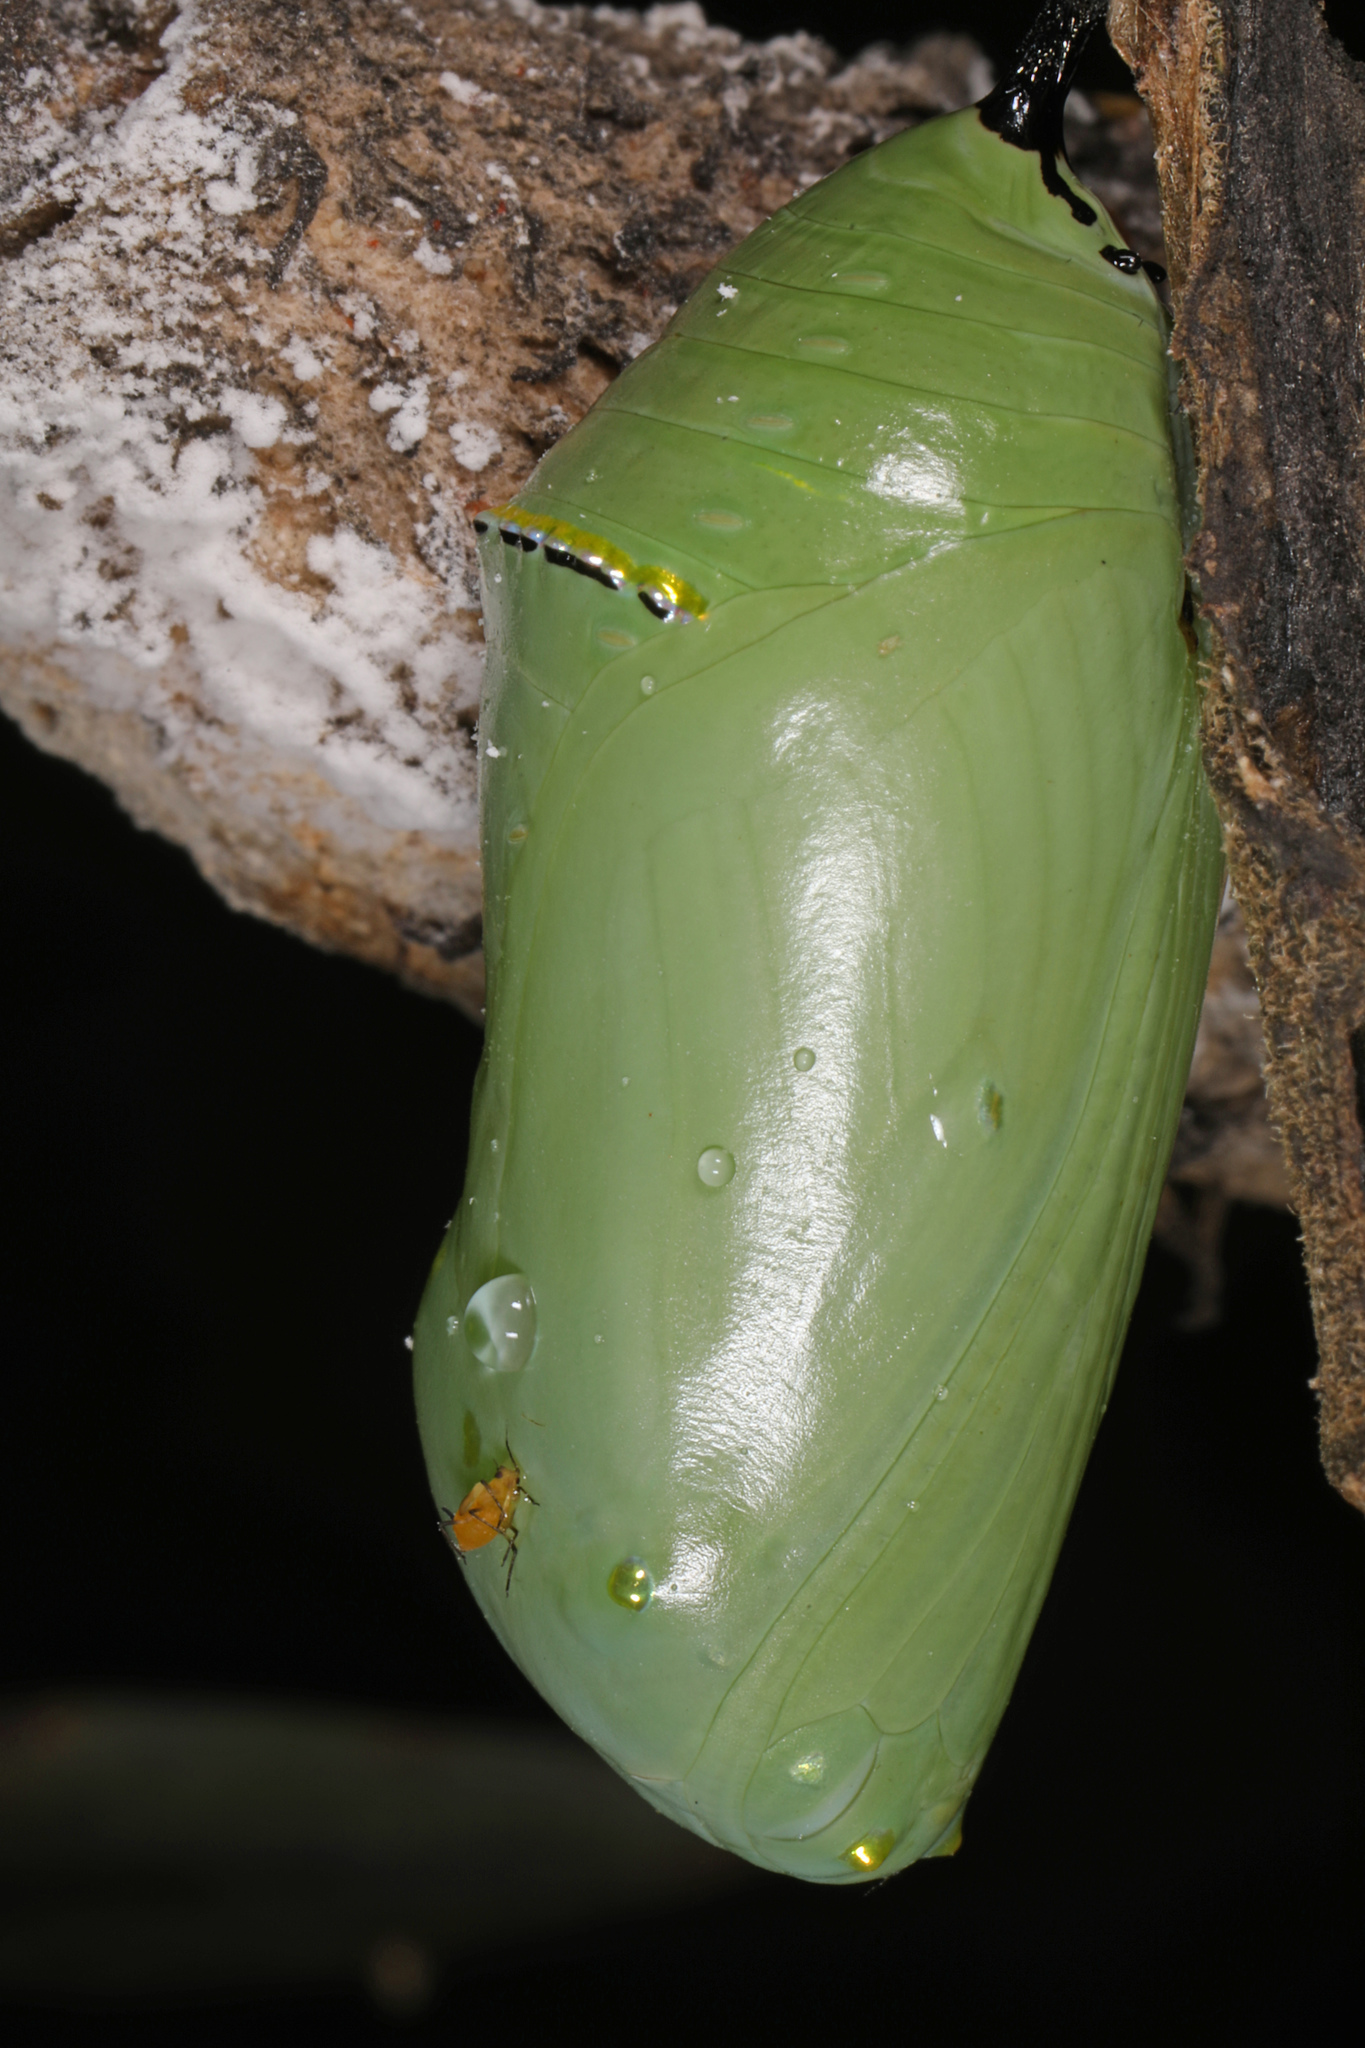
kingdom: Animalia
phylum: Arthropoda
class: Insecta
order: Lepidoptera
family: Nymphalidae
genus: Danaus
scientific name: Danaus plexippus
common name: Monarch
